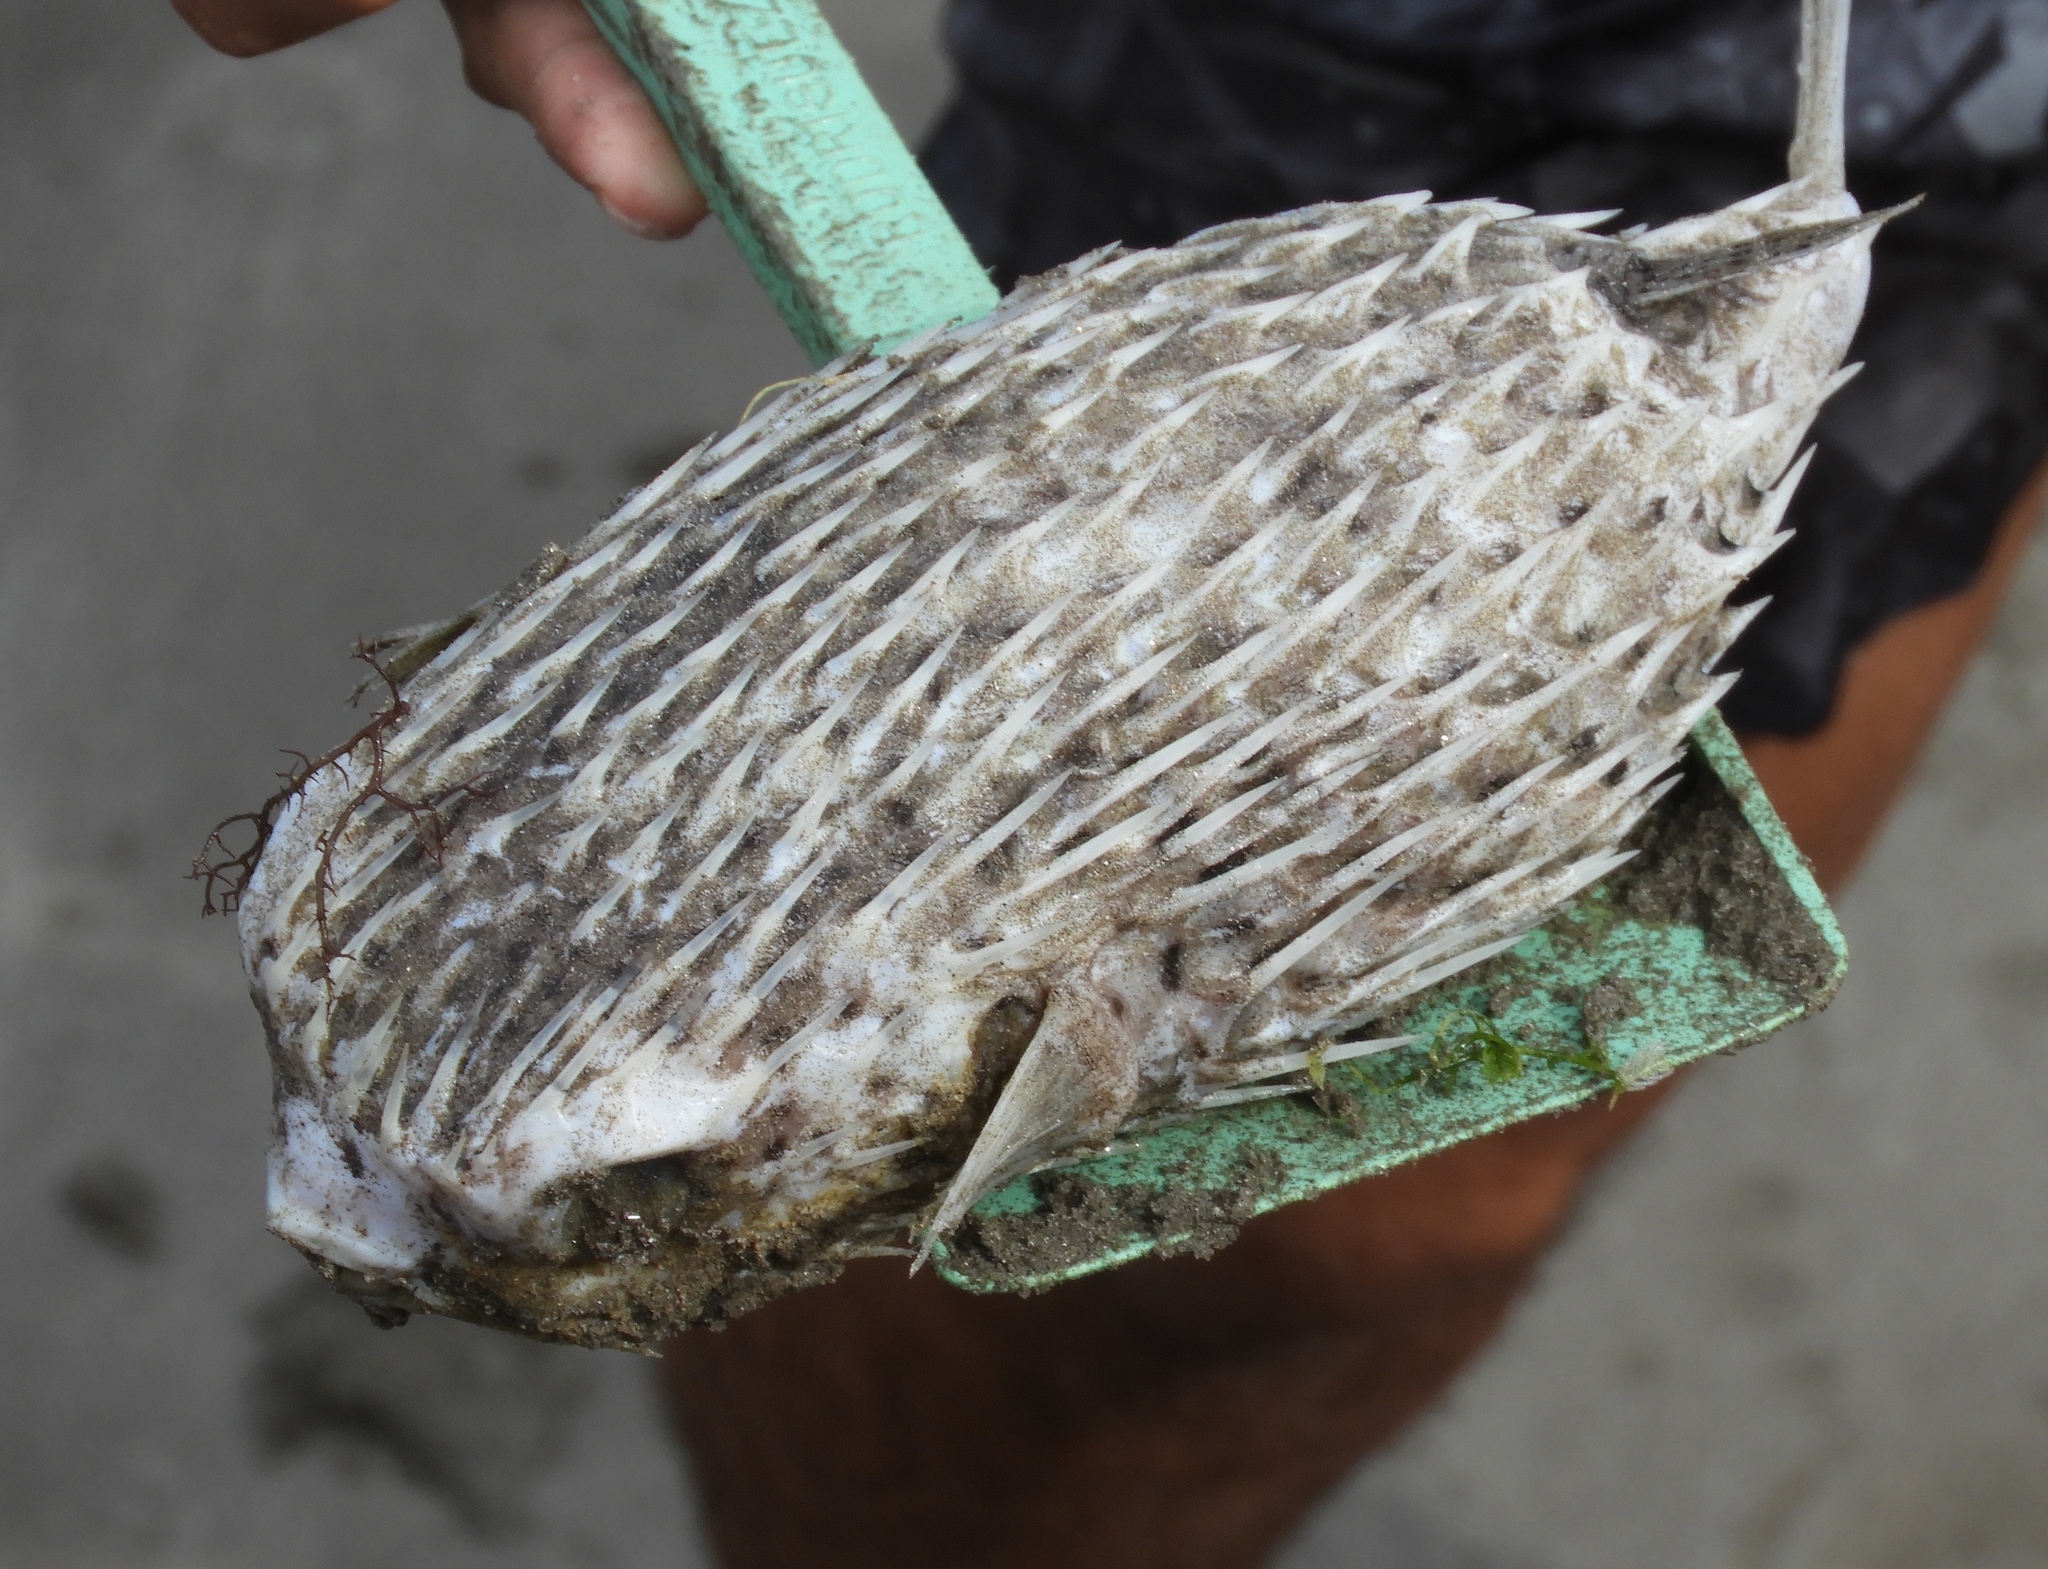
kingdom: Animalia
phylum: Chordata
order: Tetraodontiformes
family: Diodontidae
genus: Diodon
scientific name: Diodon holocanthus
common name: Balloonfish
